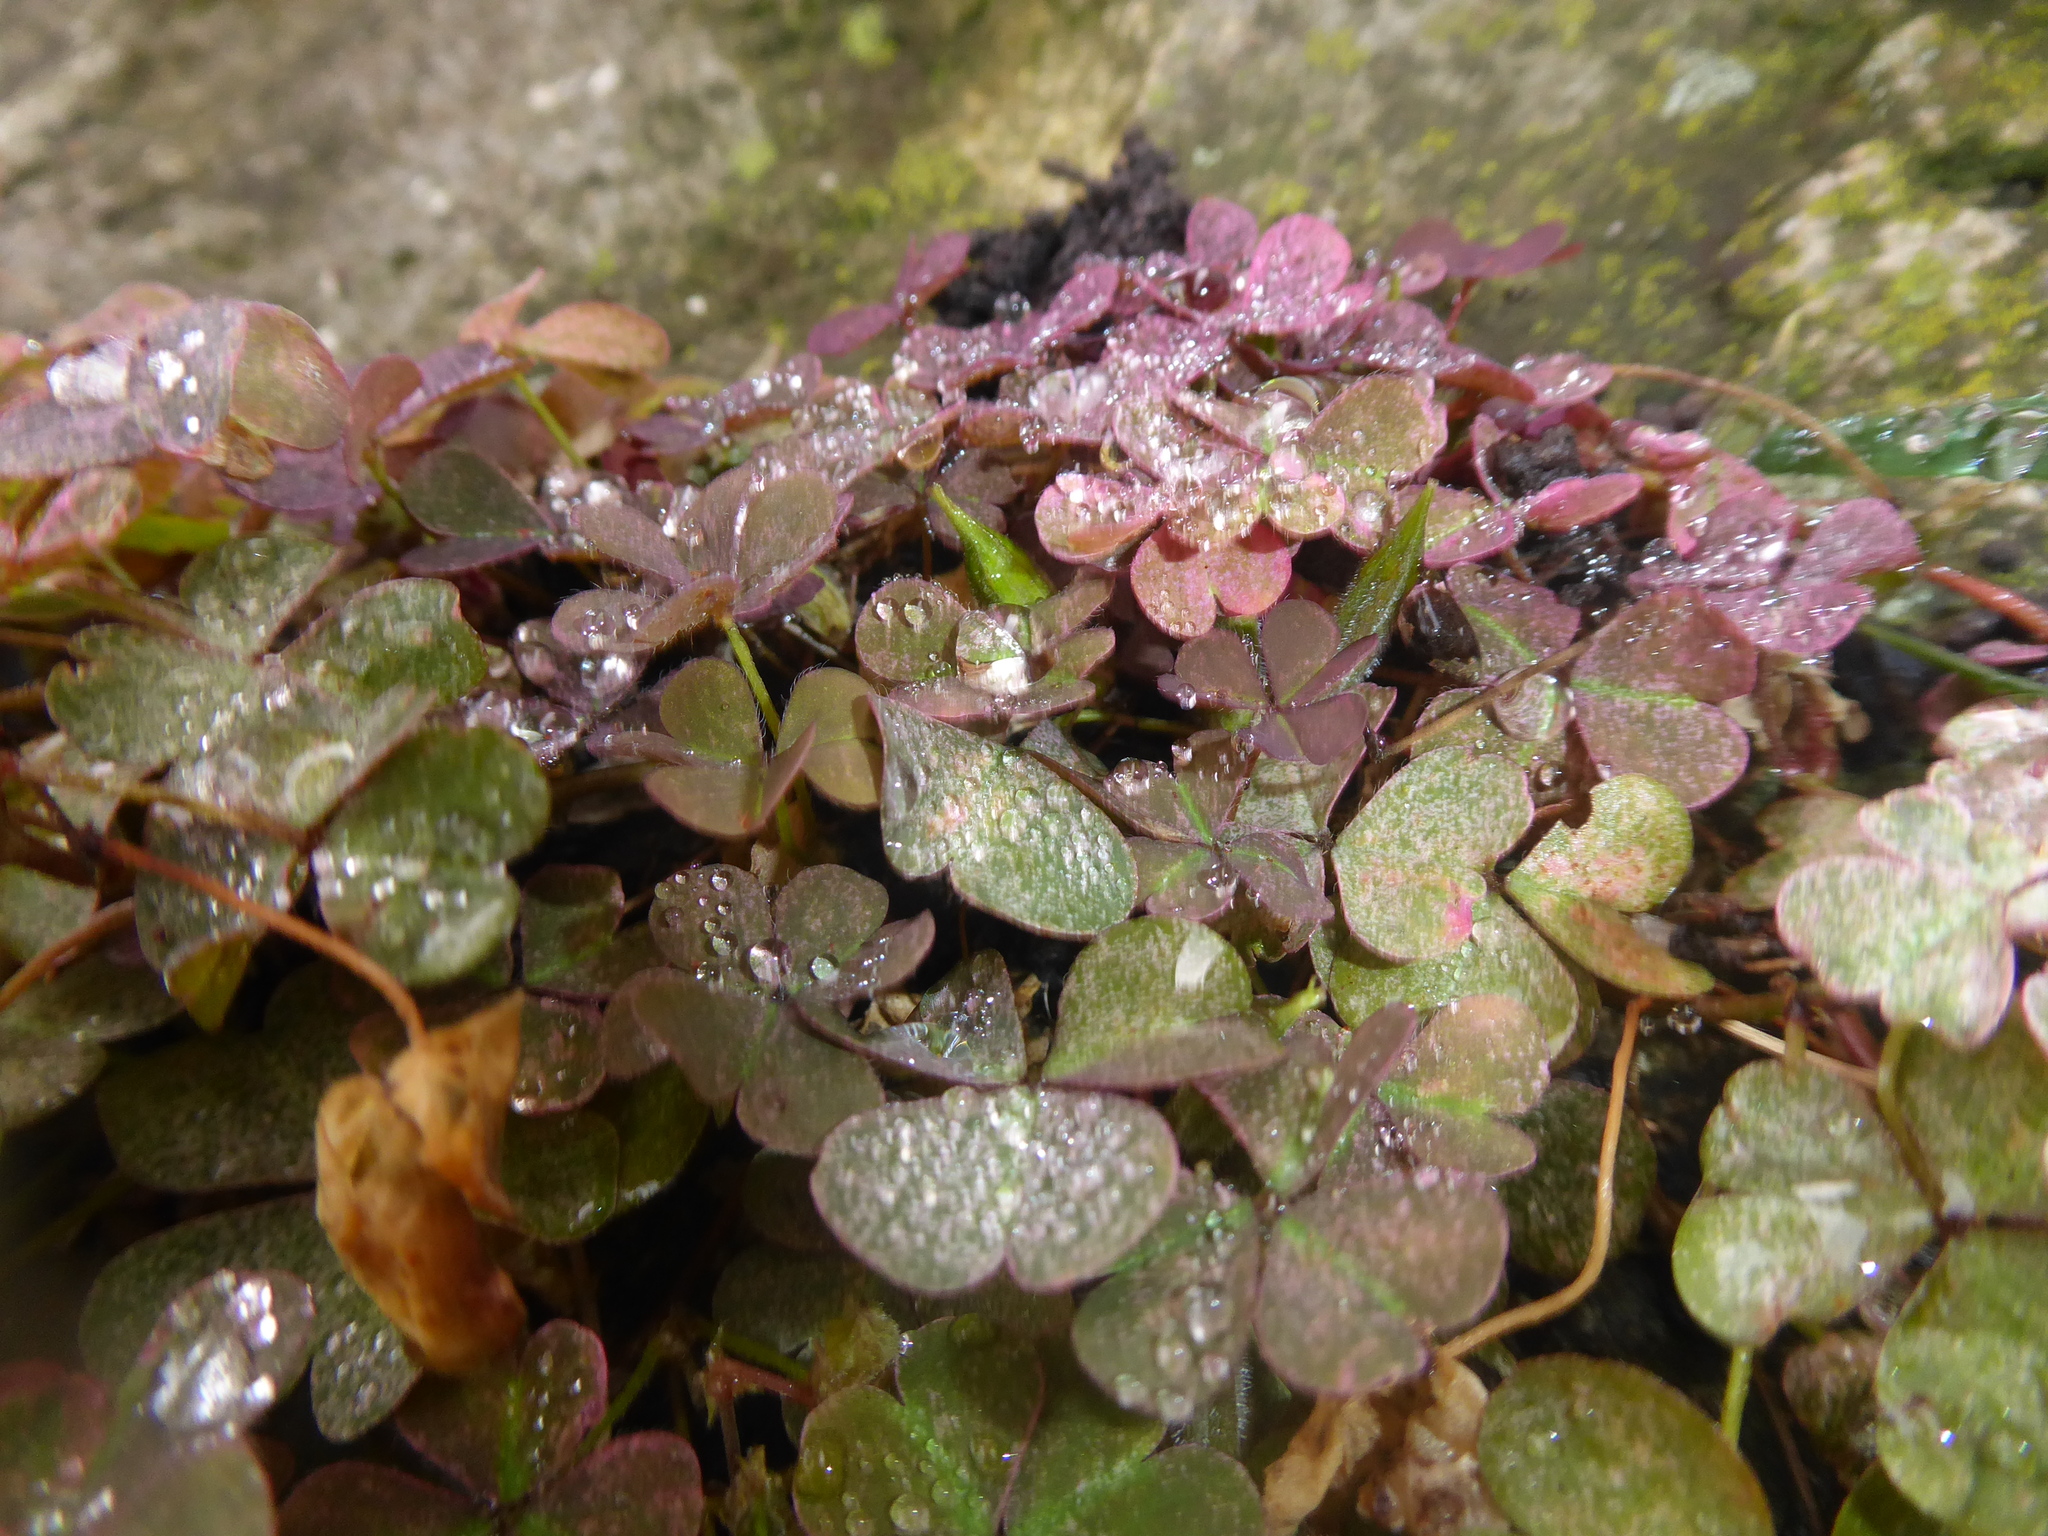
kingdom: Plantae
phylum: Tracheophyta
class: Magnoliopsida
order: Oxalidales
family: Oxalidaceae
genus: Oxalis
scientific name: Oxalis corniculata
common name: Procumbent yellow-sorrel
